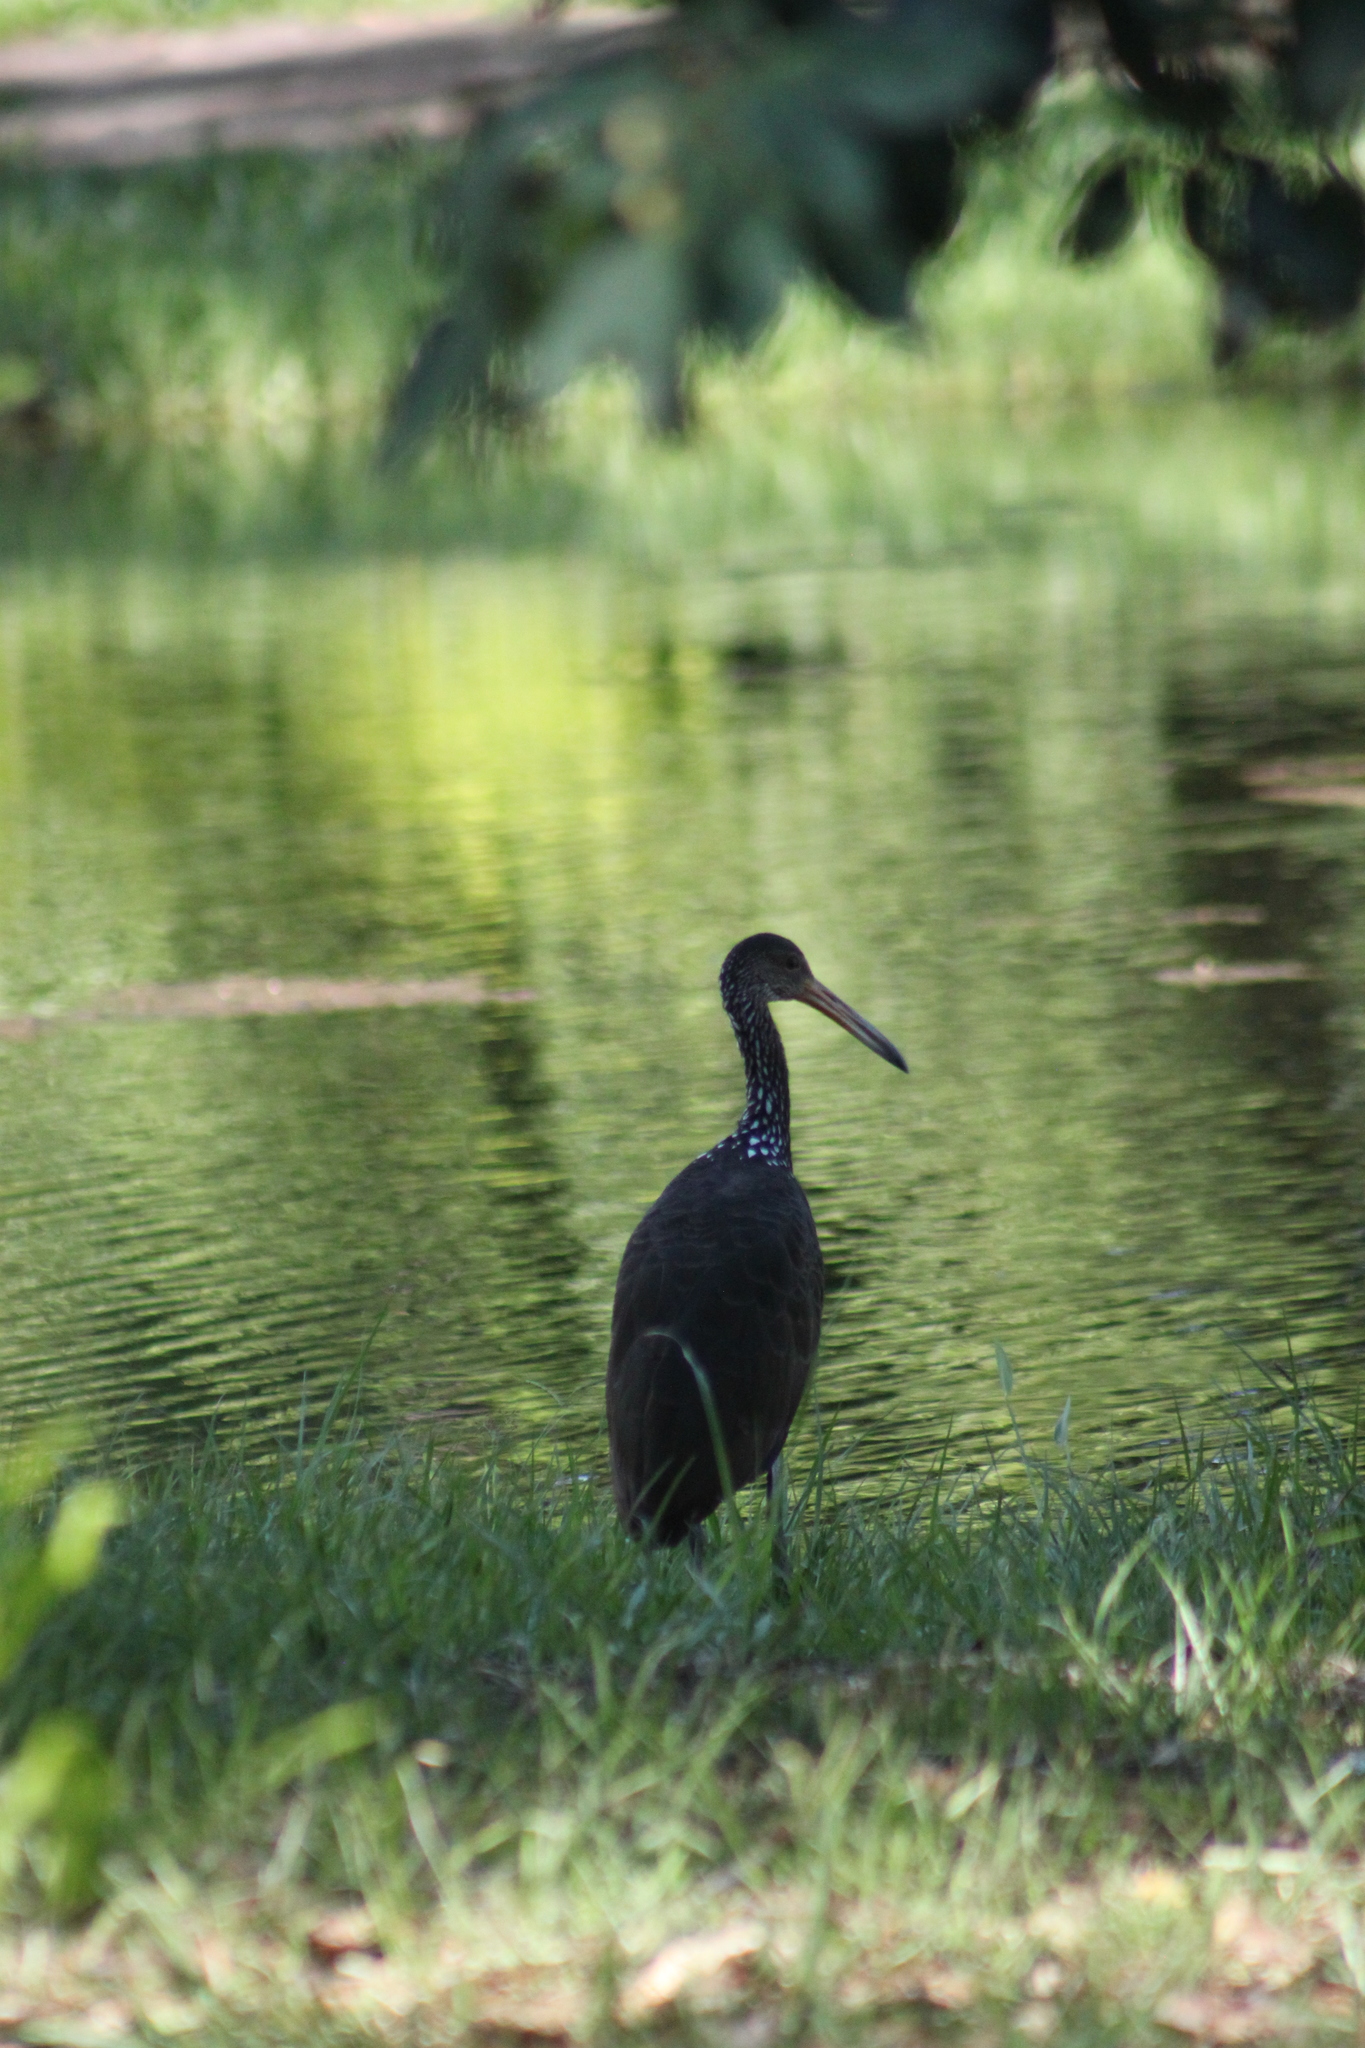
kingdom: Animalia
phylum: Chordata
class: Aves
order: Gruiformes
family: Aramidae
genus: Aramus
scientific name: Aramus guarauna
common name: Limpkin
